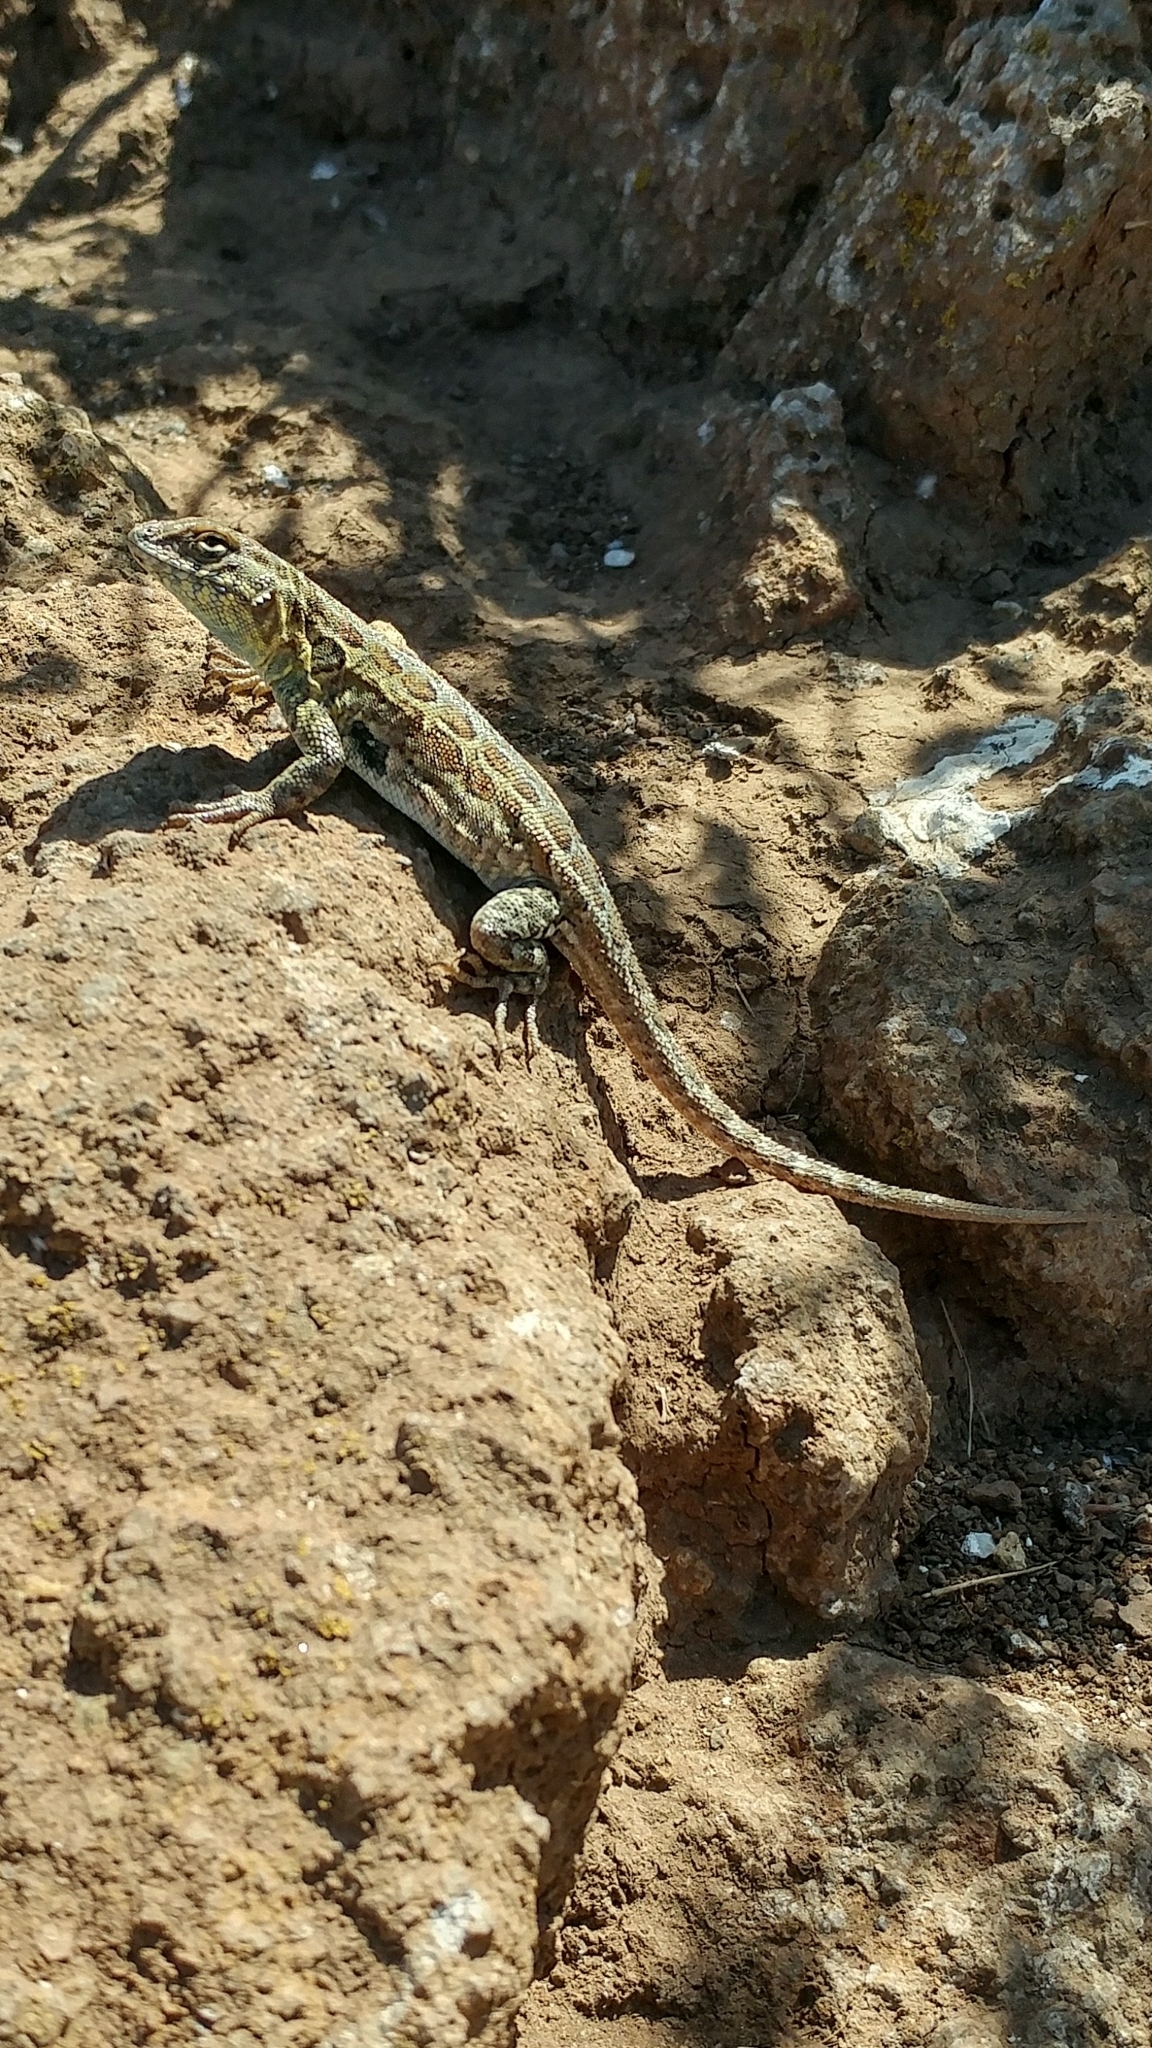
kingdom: Animalia
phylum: Chordata
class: Squamata
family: Phrynosomatidae
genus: Uta
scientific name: Uta stansburiana
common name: Side-blotched lizard
